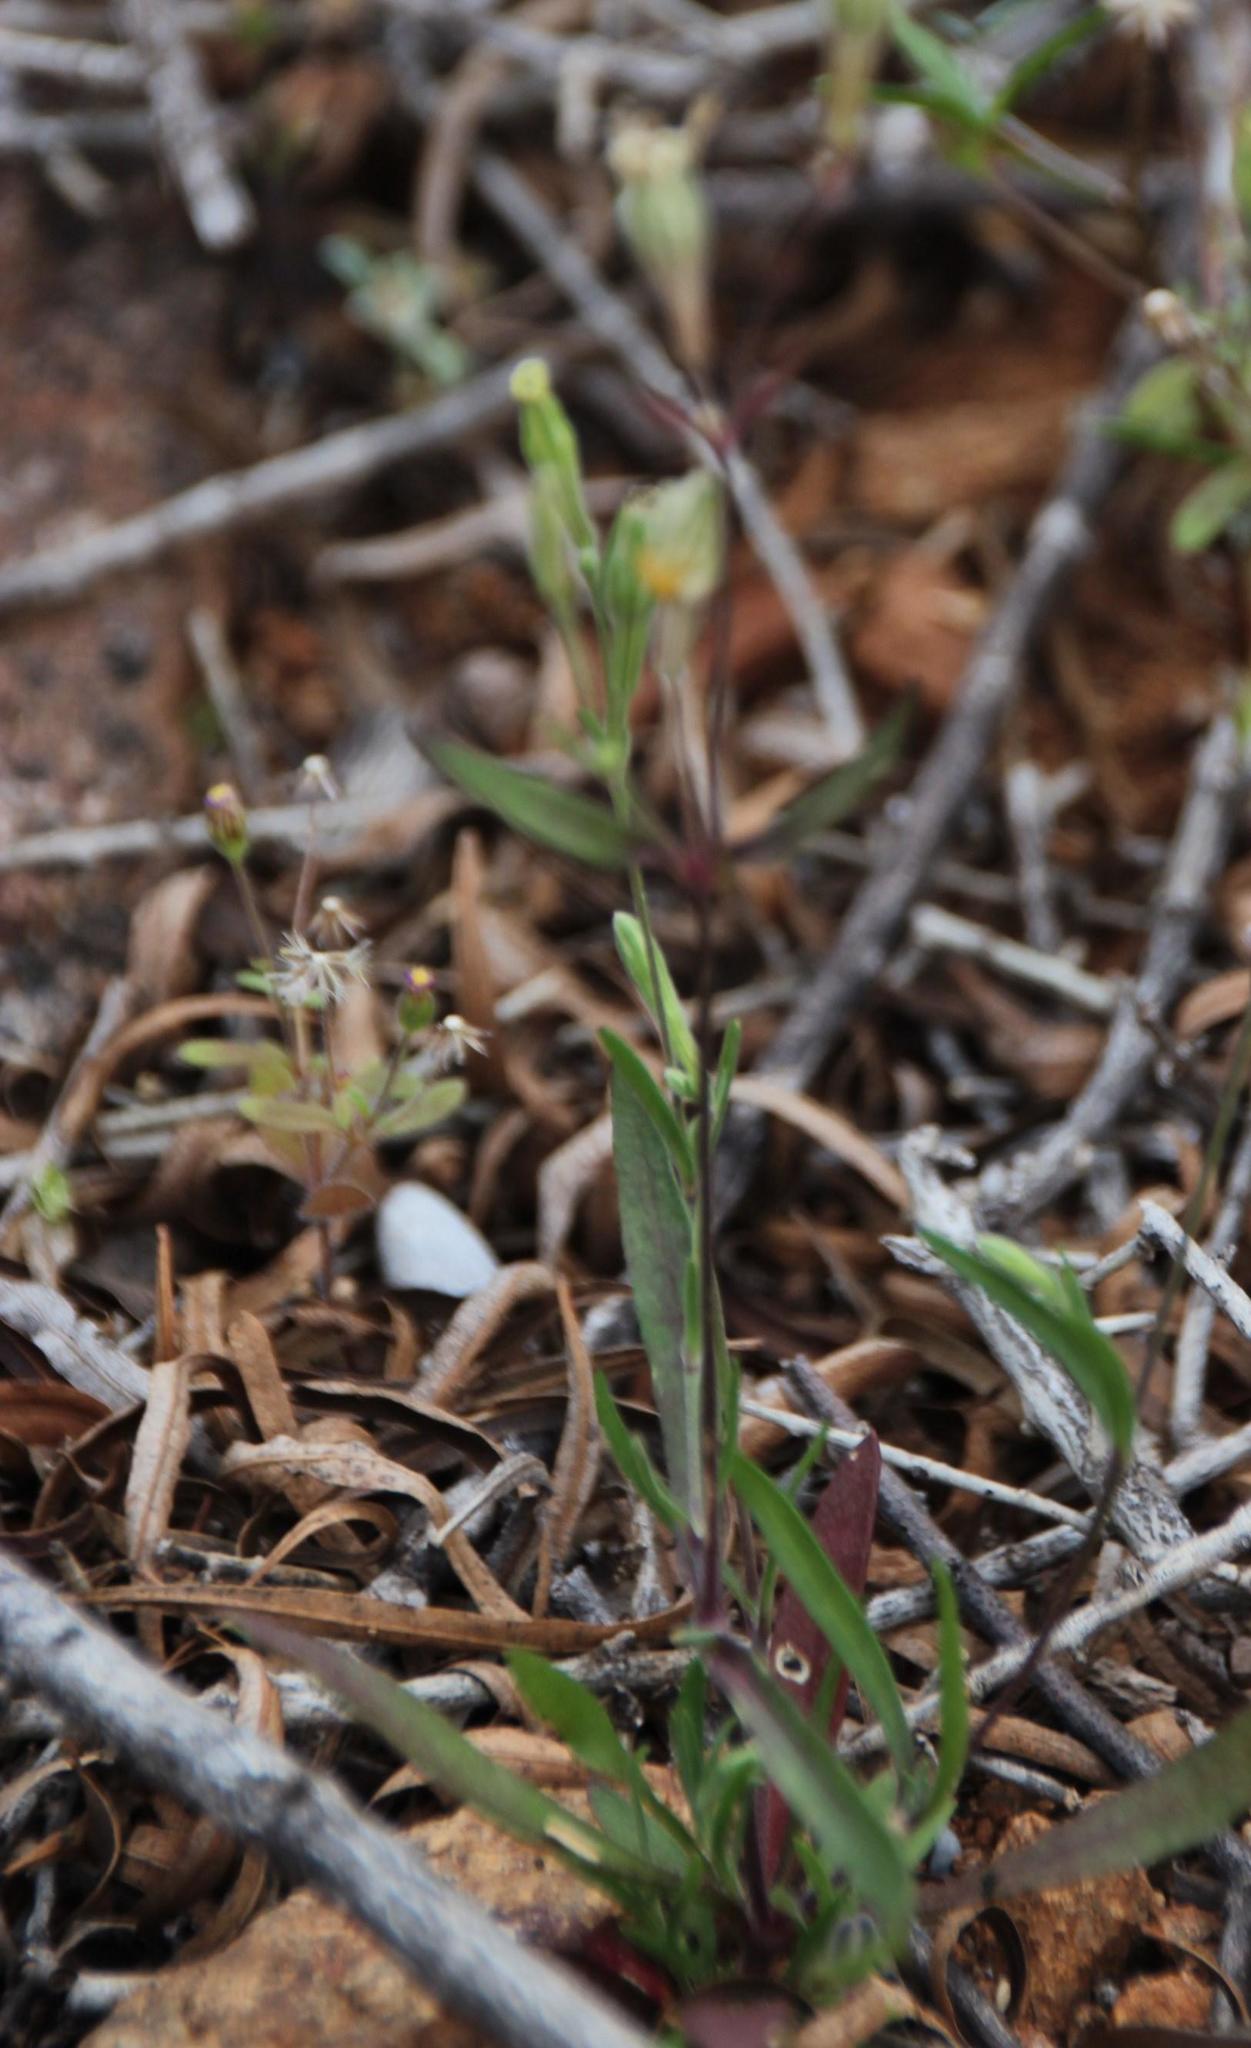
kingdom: Plantae
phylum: Tracheophyta
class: Magnoliopsida
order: Caryophyllales
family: Caryophyllaceae
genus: Silene
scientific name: Silene aethiopica
